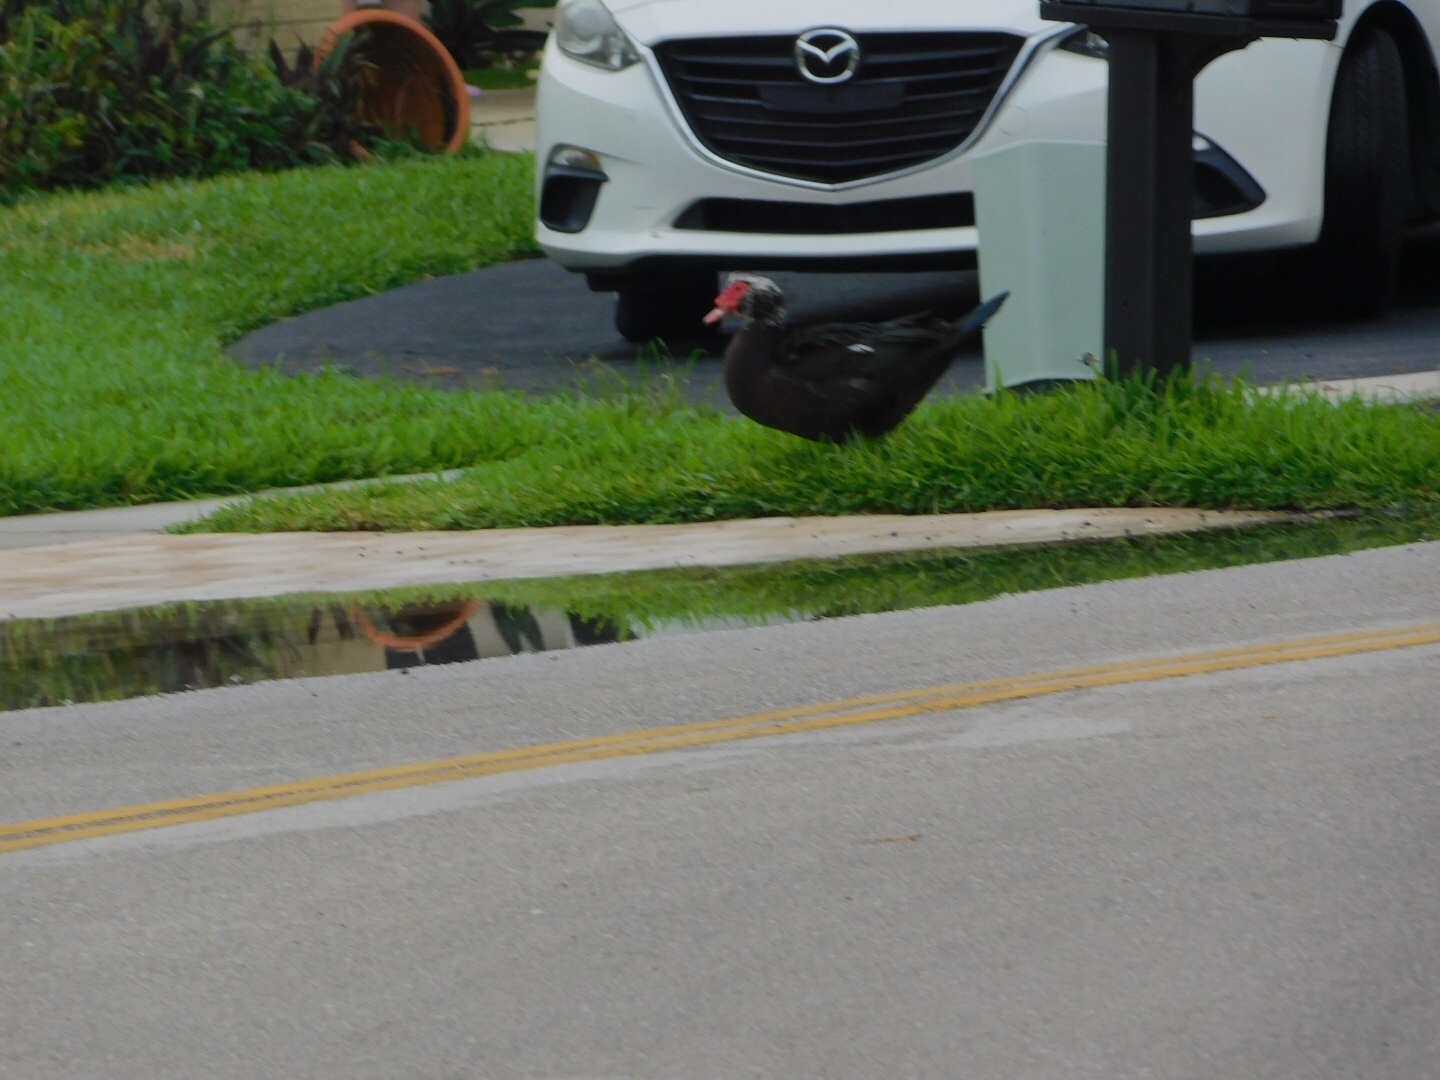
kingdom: Animalia
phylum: Chordata
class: Aves
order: Anseriformes
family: Anatidae
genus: Cairina
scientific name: Cairina moschata
